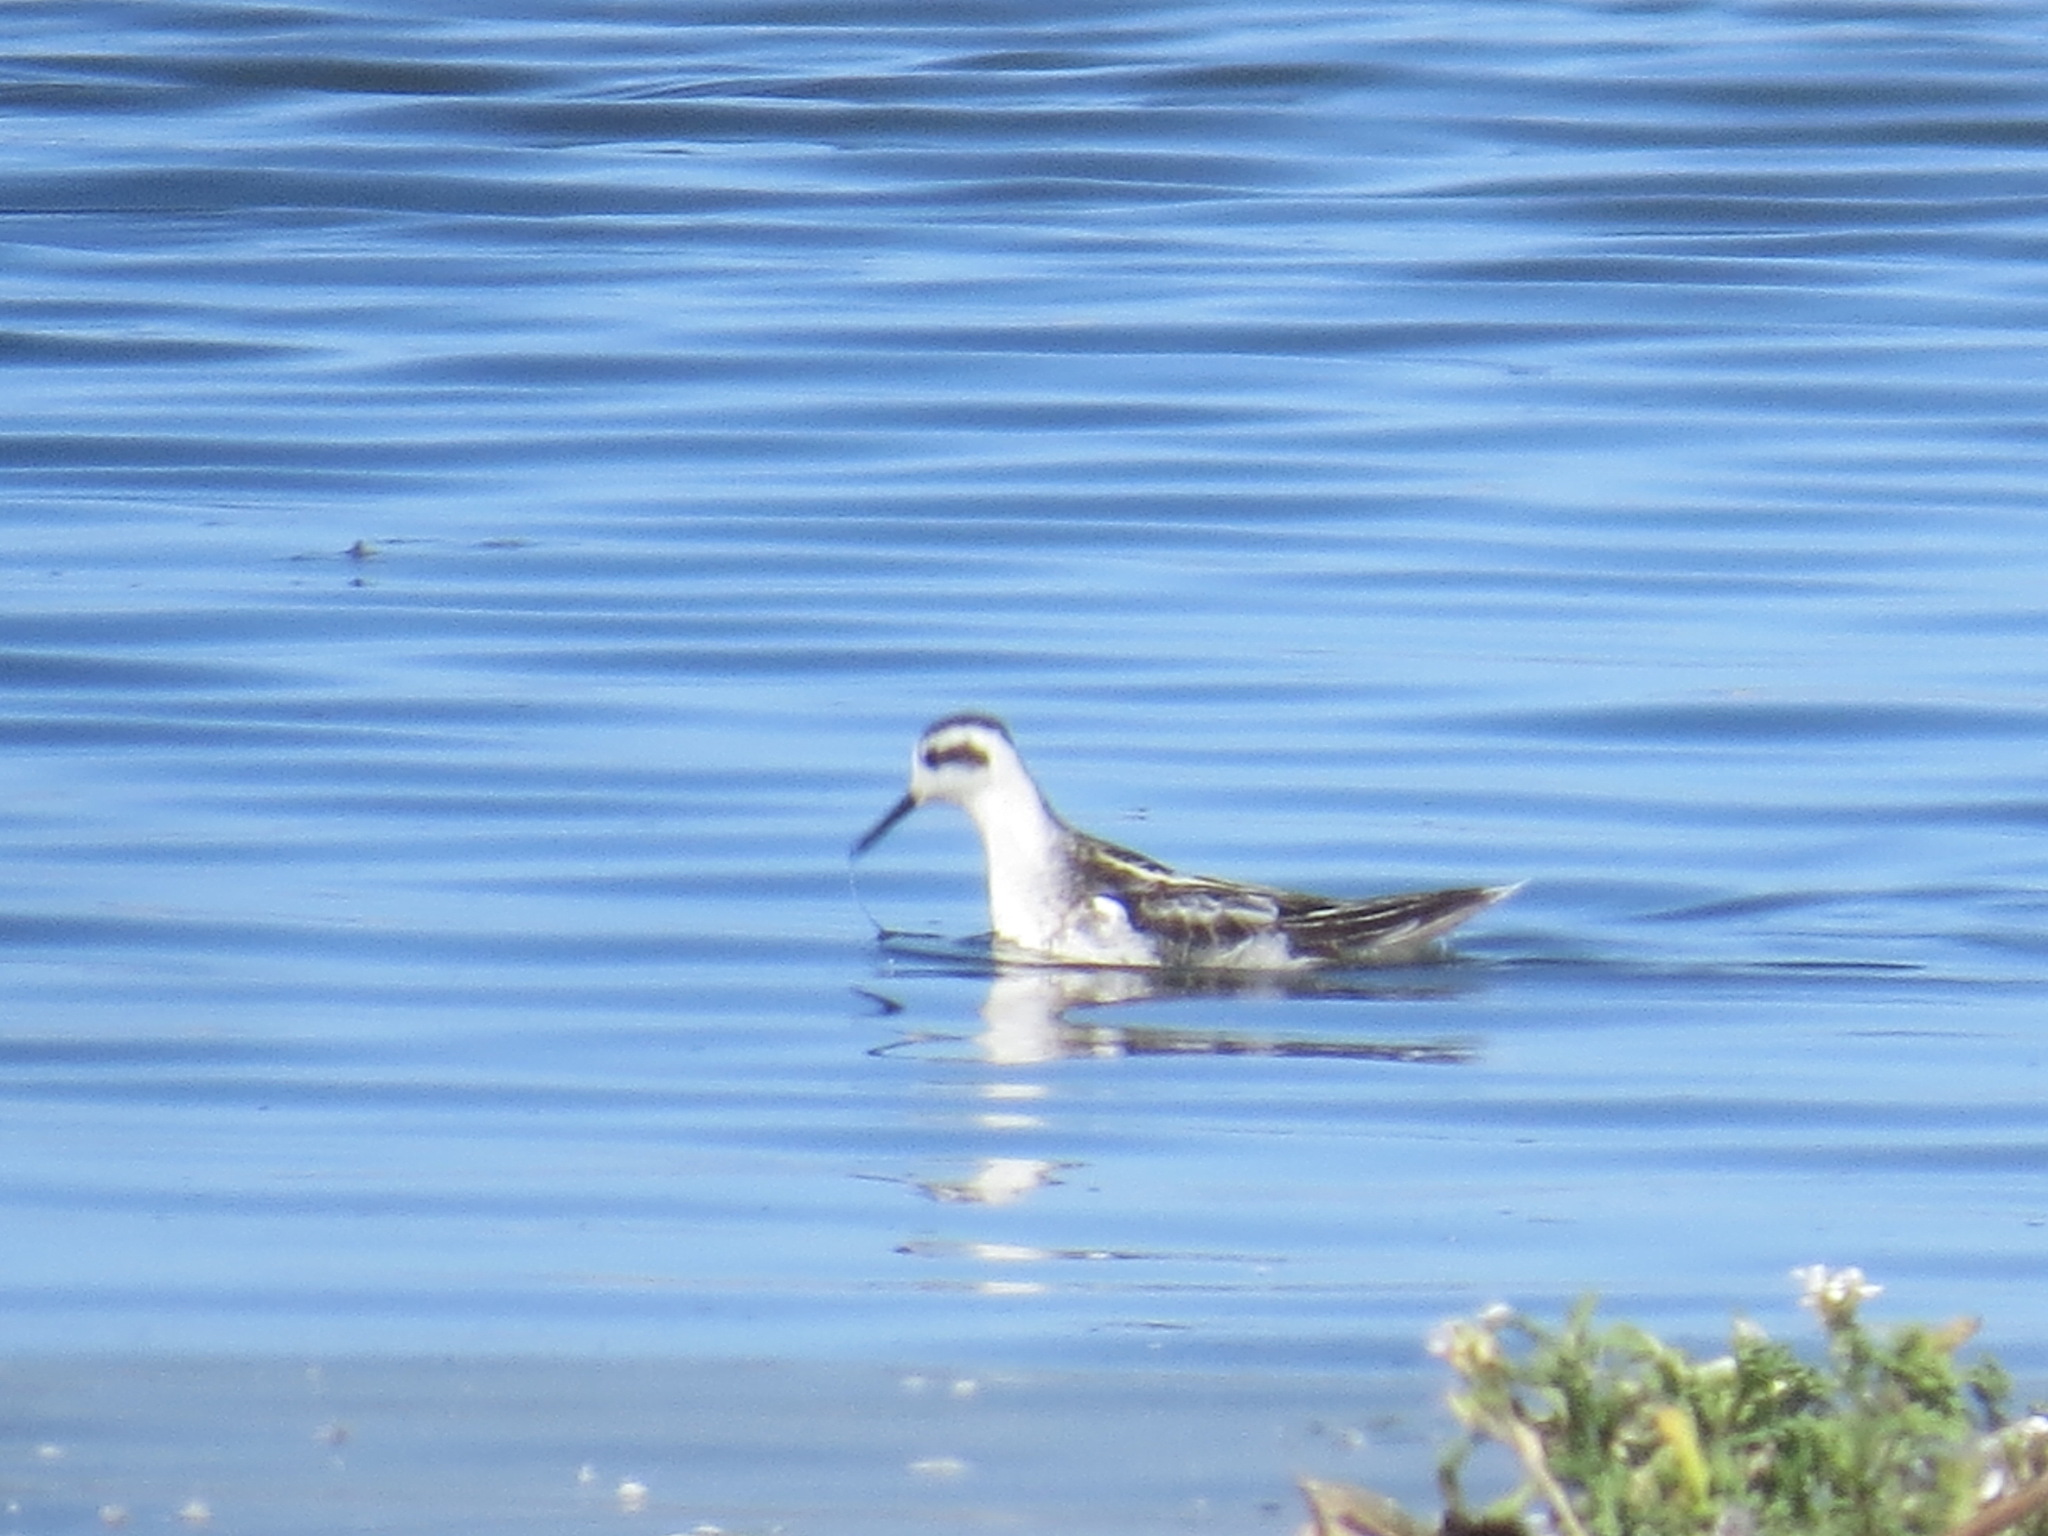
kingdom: Animalia
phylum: Chordata
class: Aves
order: Charadriiformes
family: Scolopacidae
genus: Phalaropus
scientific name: Phalaropus lobatus
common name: Red-necked phalarope
